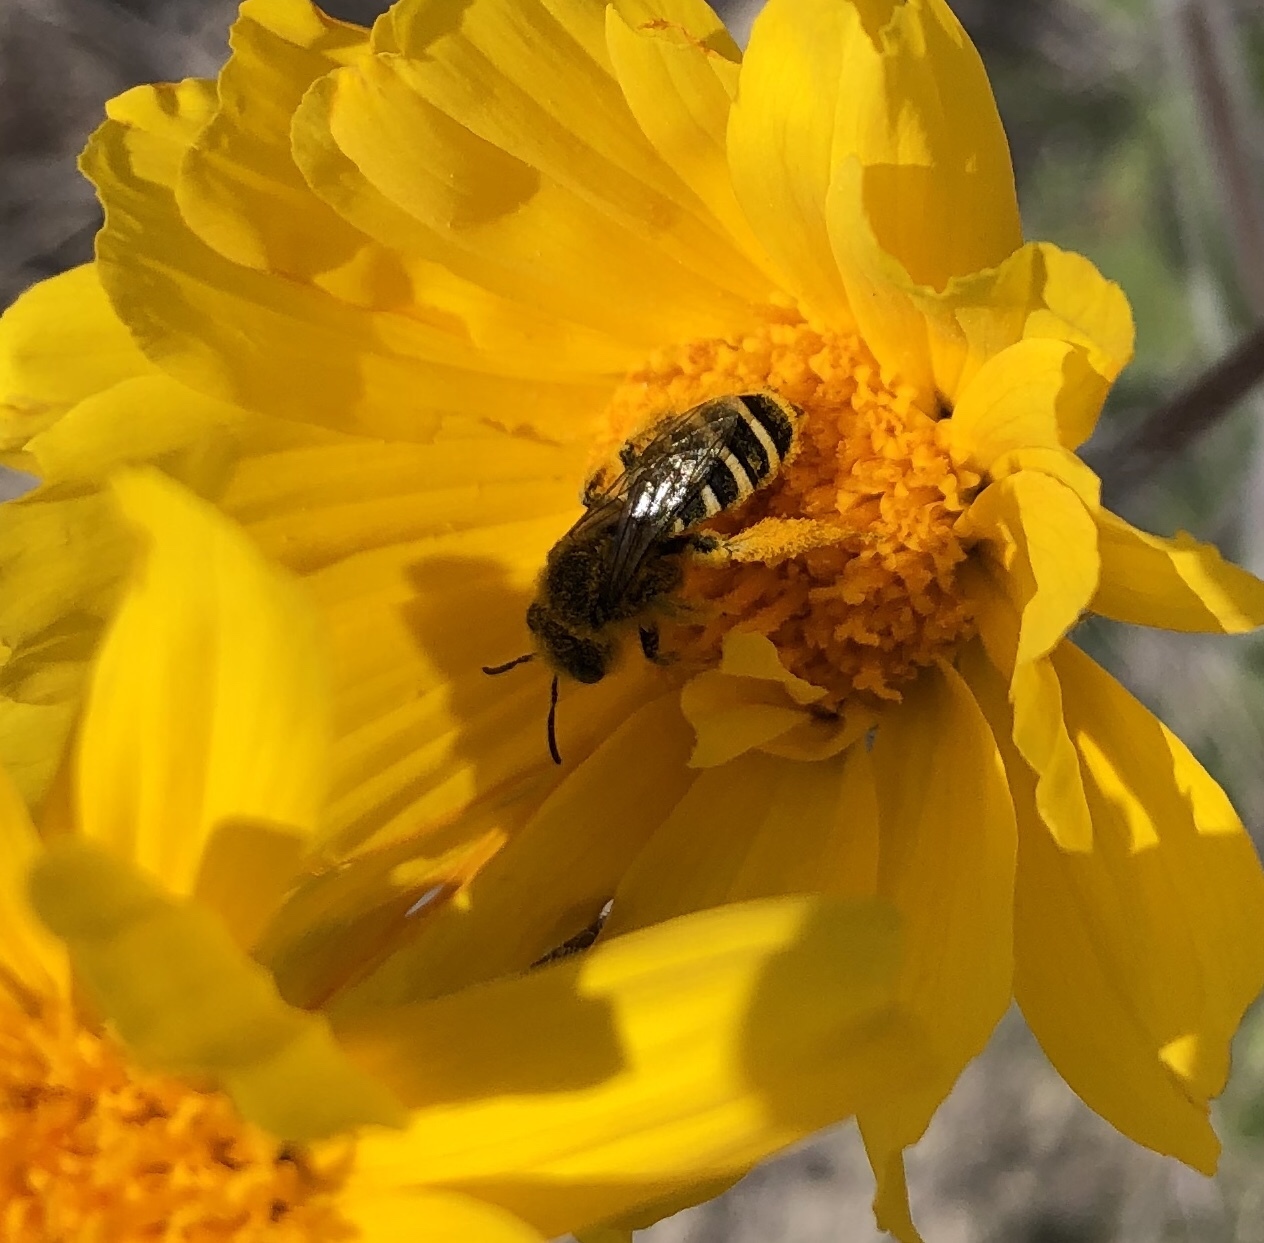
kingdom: Animalia
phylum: Arthropoda
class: Insecta
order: Hymenoptera
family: Melittidae
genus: Hesperapis
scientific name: Hesperapis
